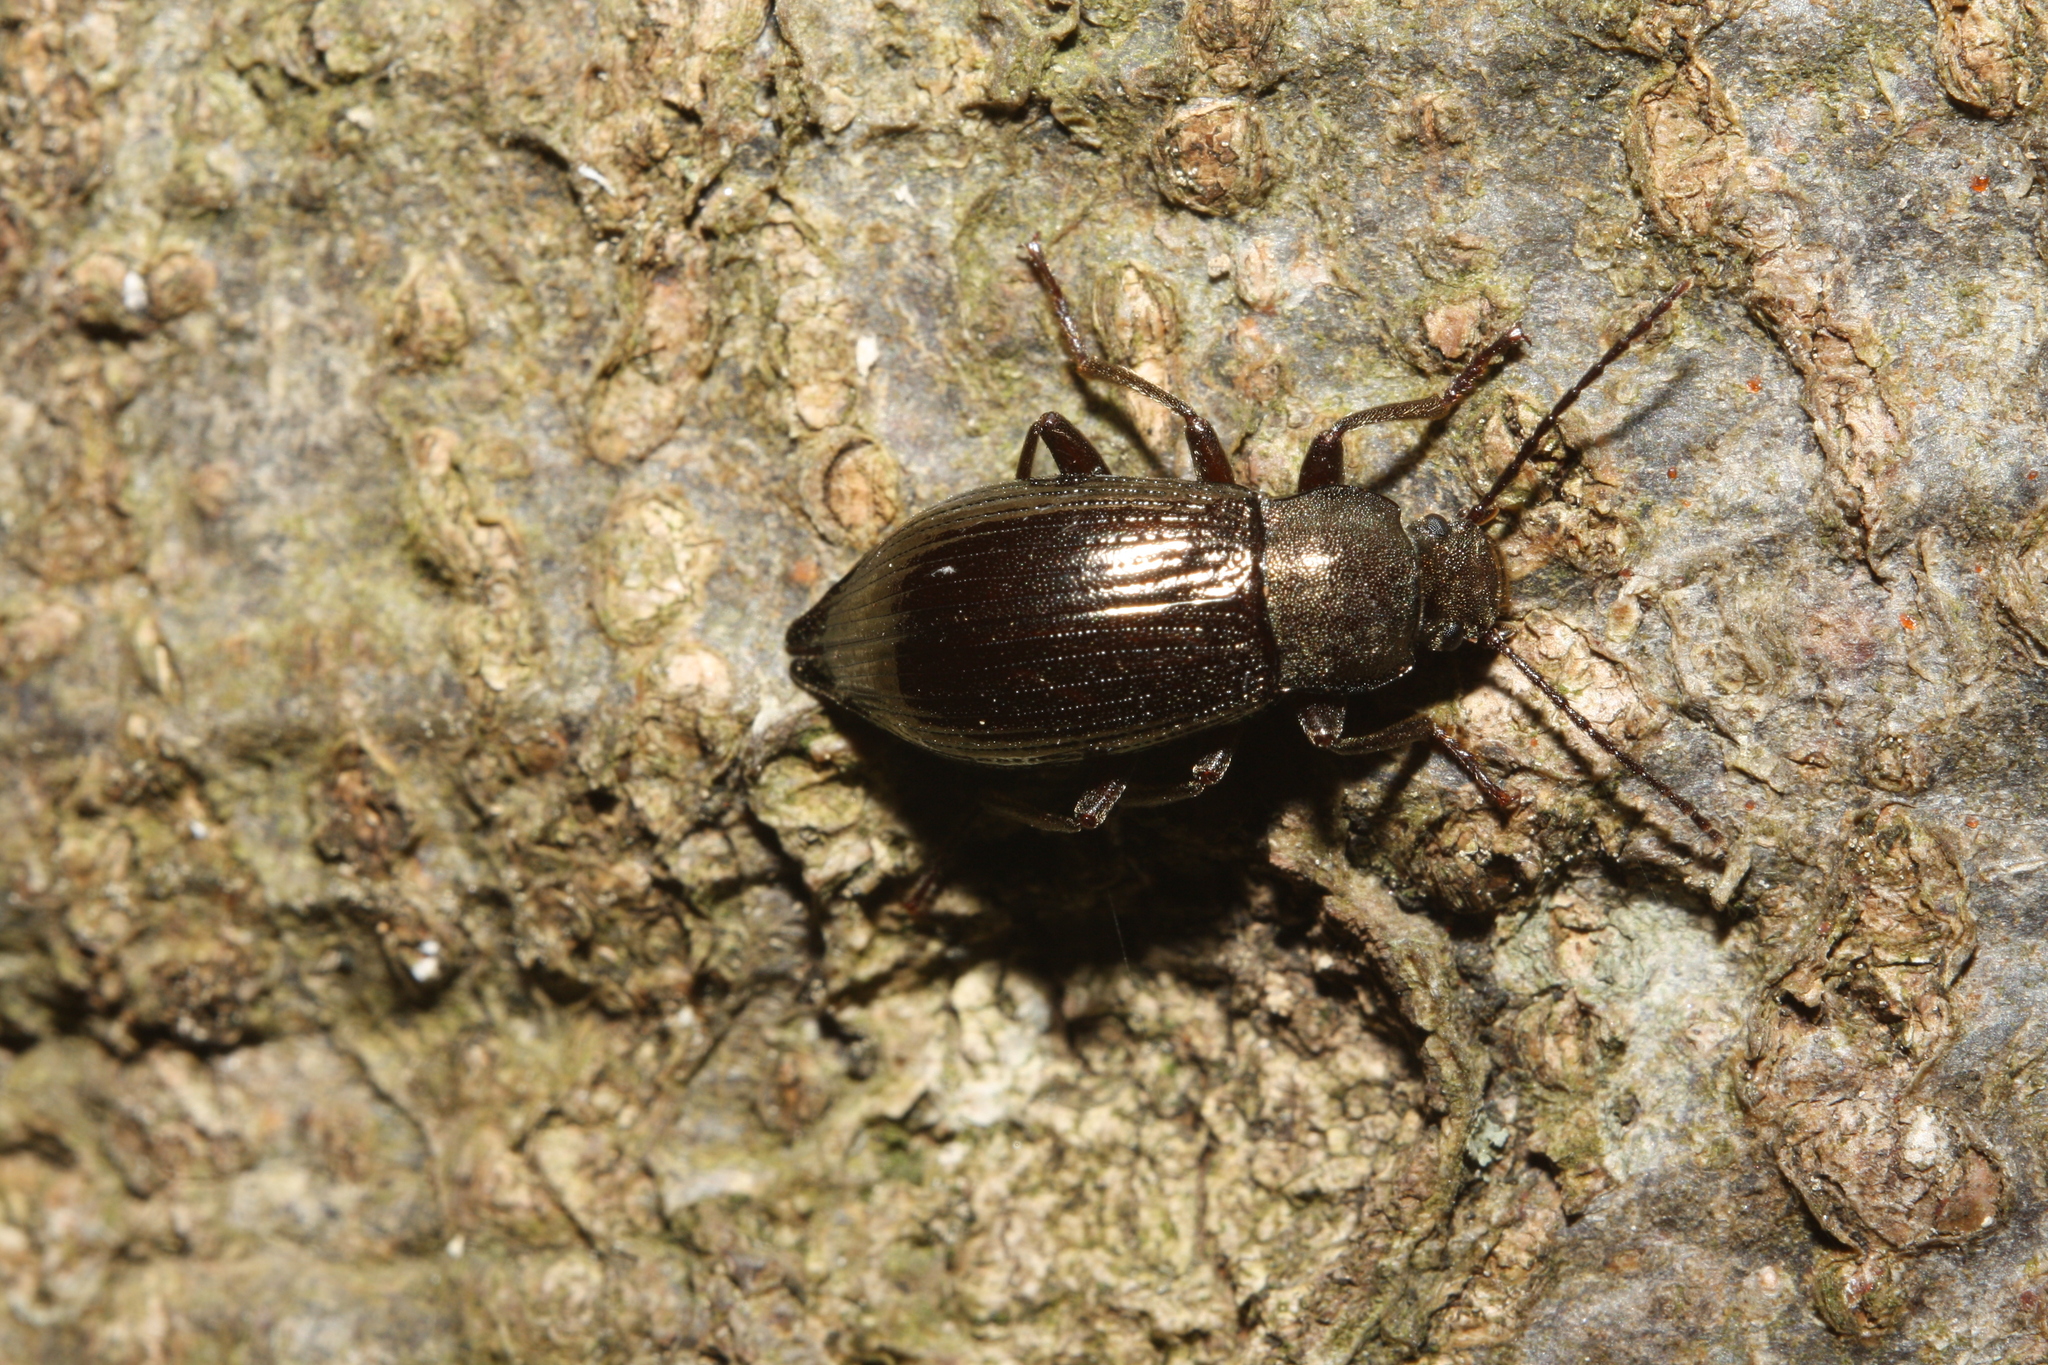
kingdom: Animalia
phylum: Arthropoda
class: Insecta
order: Coleoptera
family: Tenebrionidae
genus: Stenomax
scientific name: Stenomax aeneus
